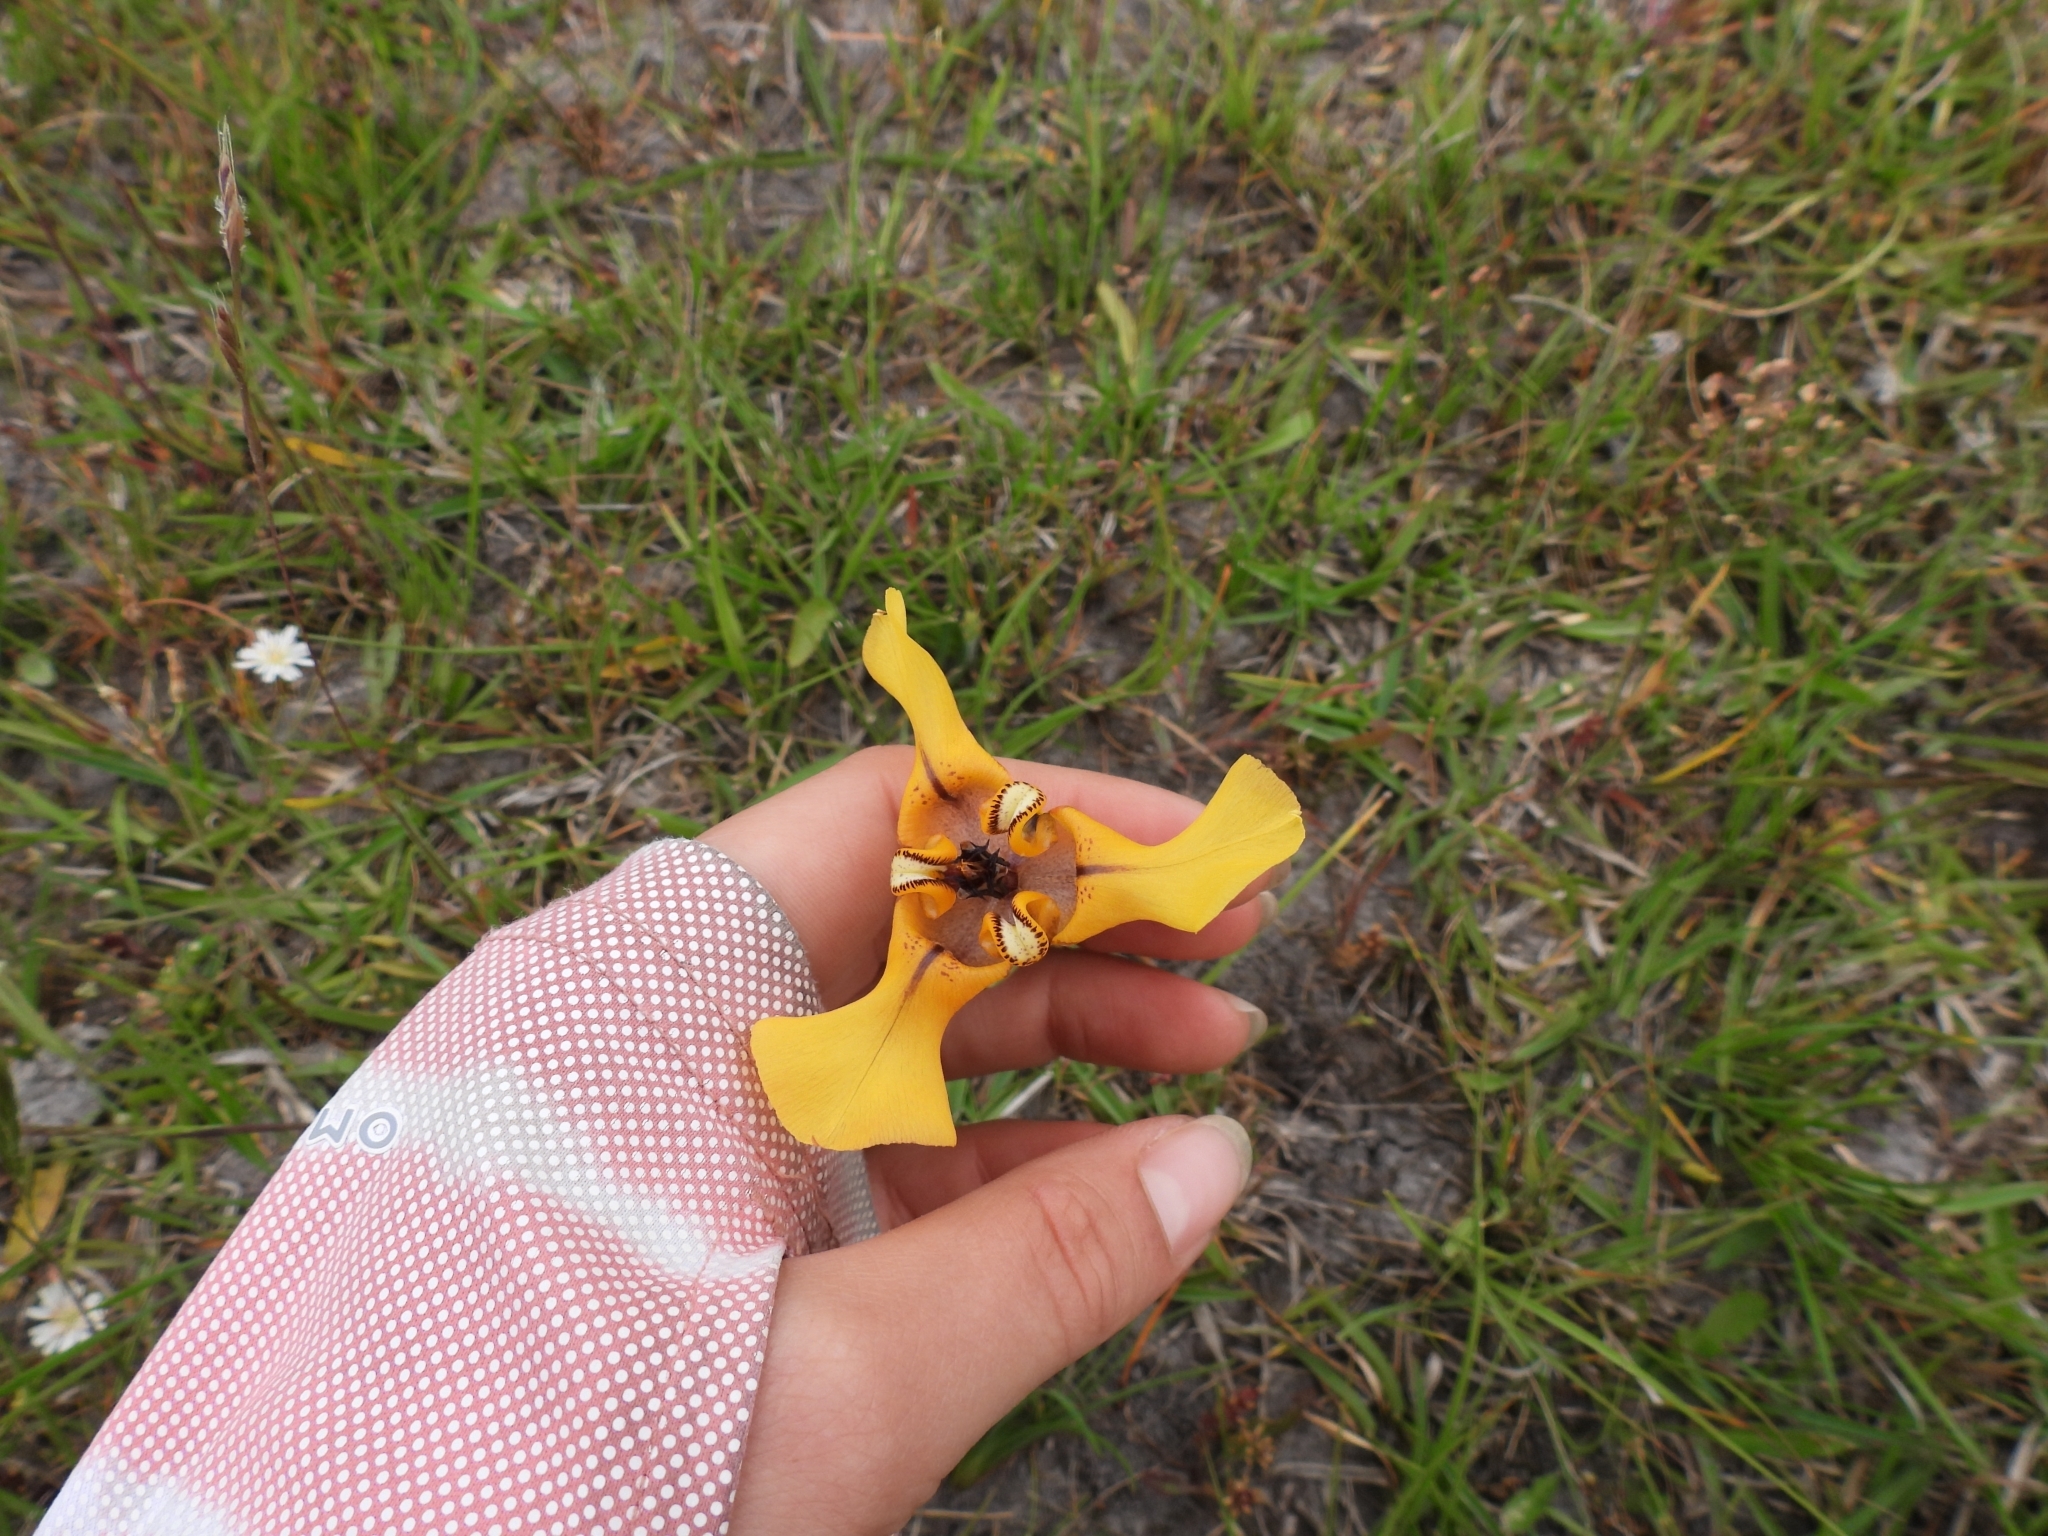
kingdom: Plantae
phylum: Tracheophyta
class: Liliopsida
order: Asparagales
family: Iridaceae
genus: Cypella
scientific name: Cypella herbertii
